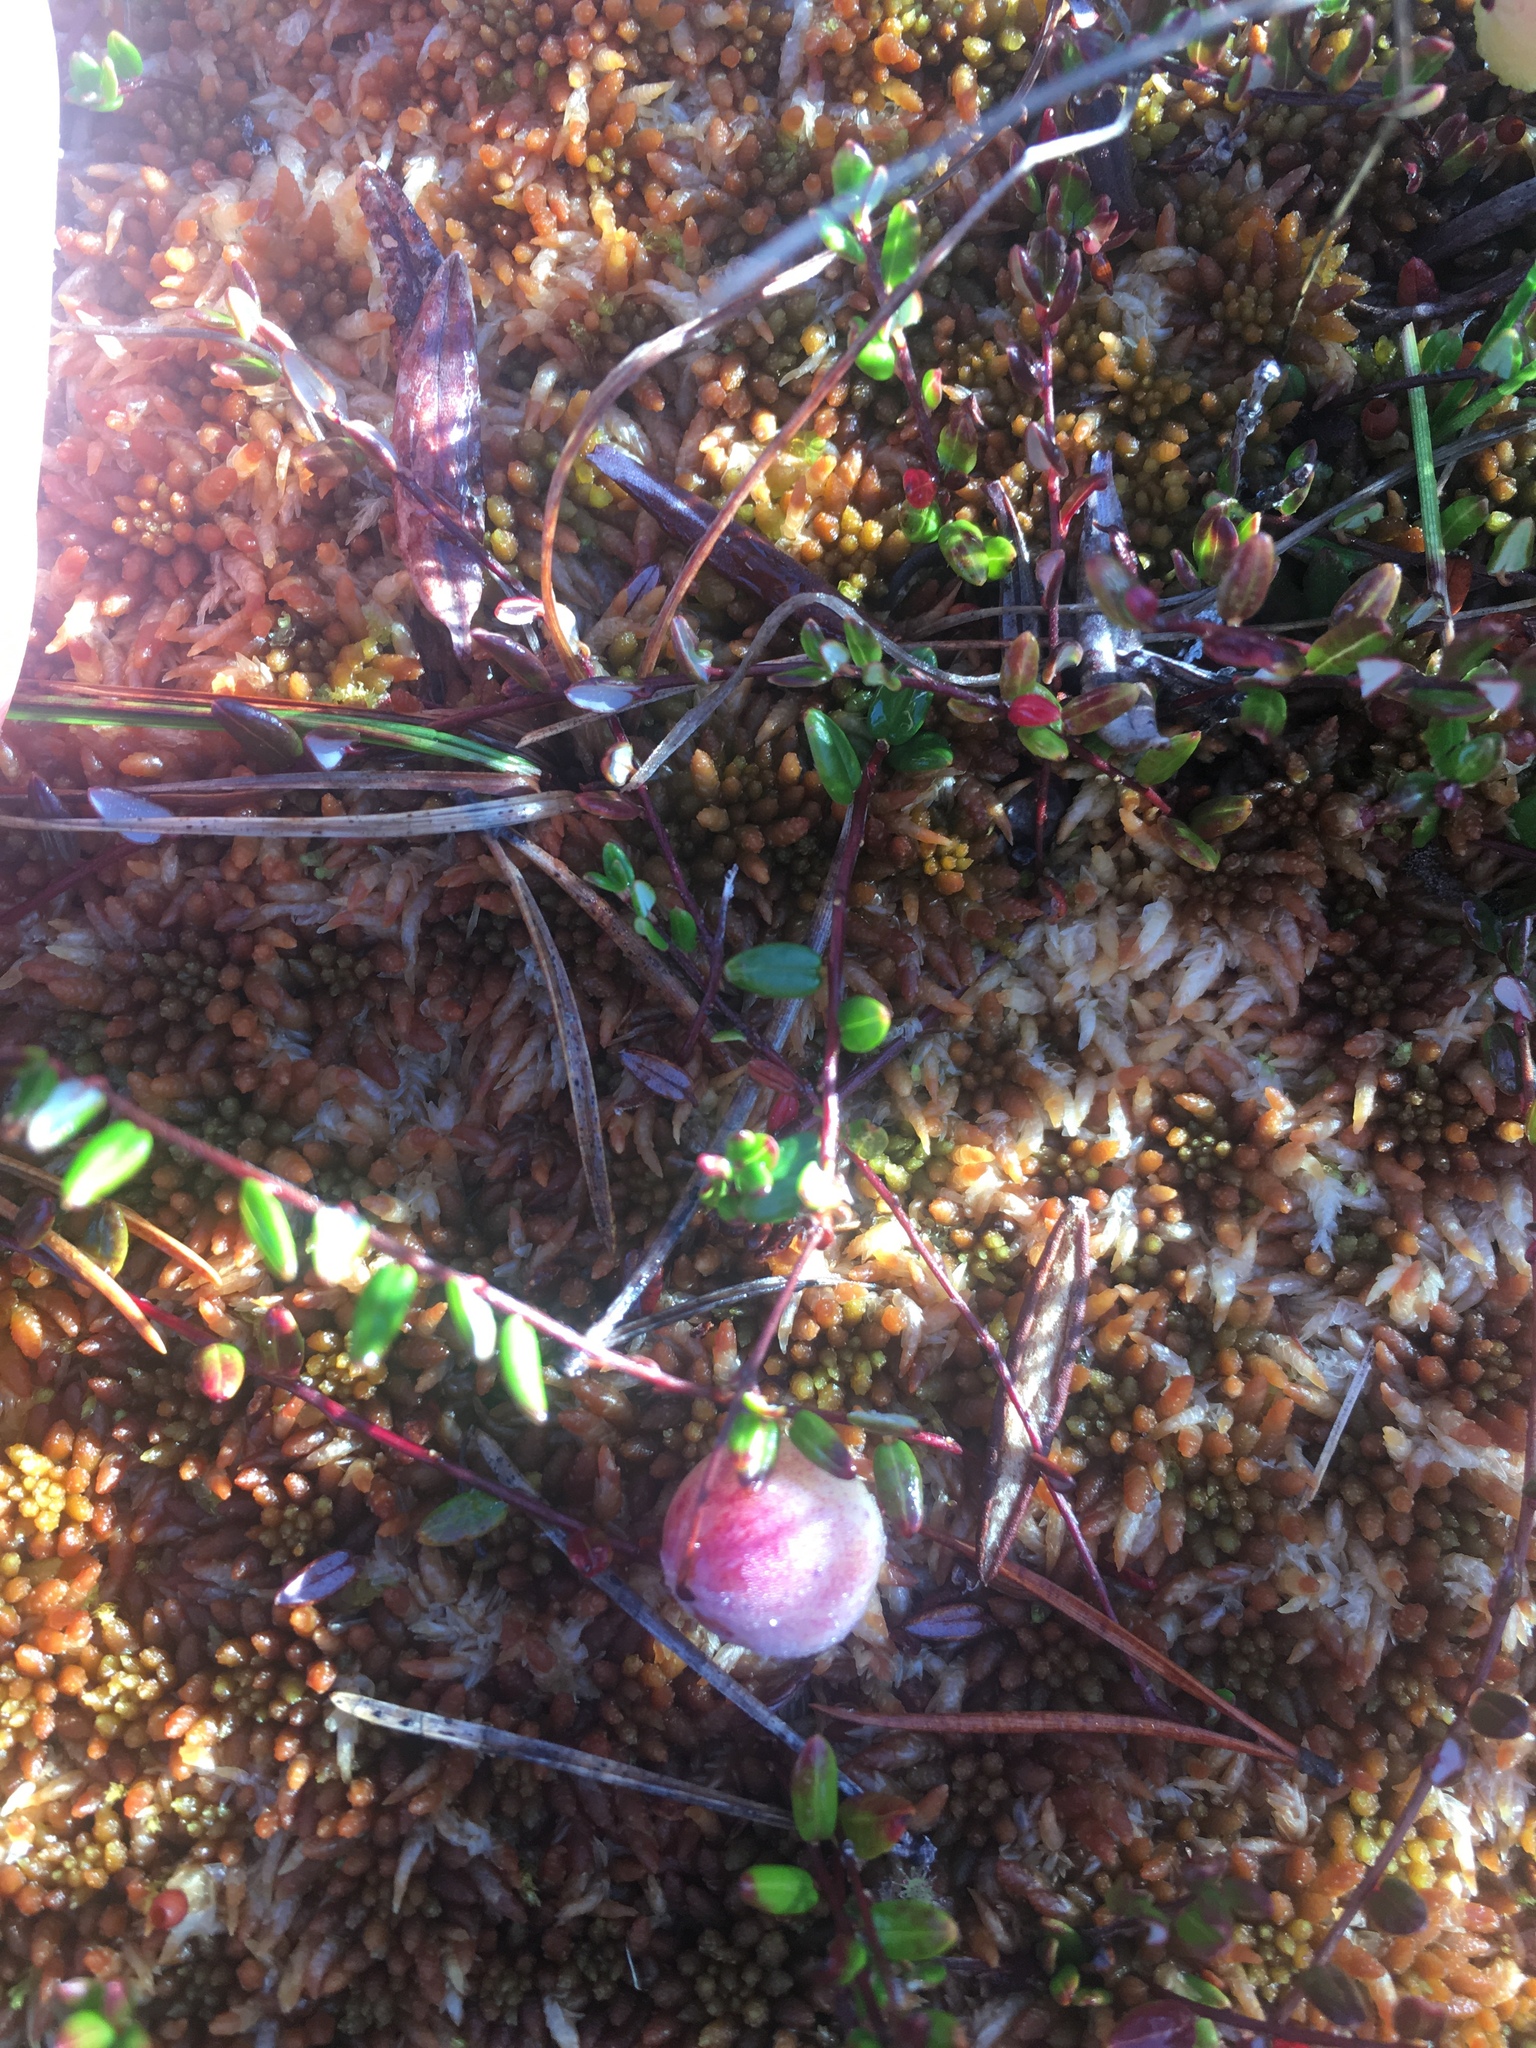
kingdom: Plantae
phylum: Tracheophyta
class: Magnoliopsida
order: Ericales
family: Ericaceae
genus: Vaccinium
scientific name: Vaccinium oxycoccos
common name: Cranberry
